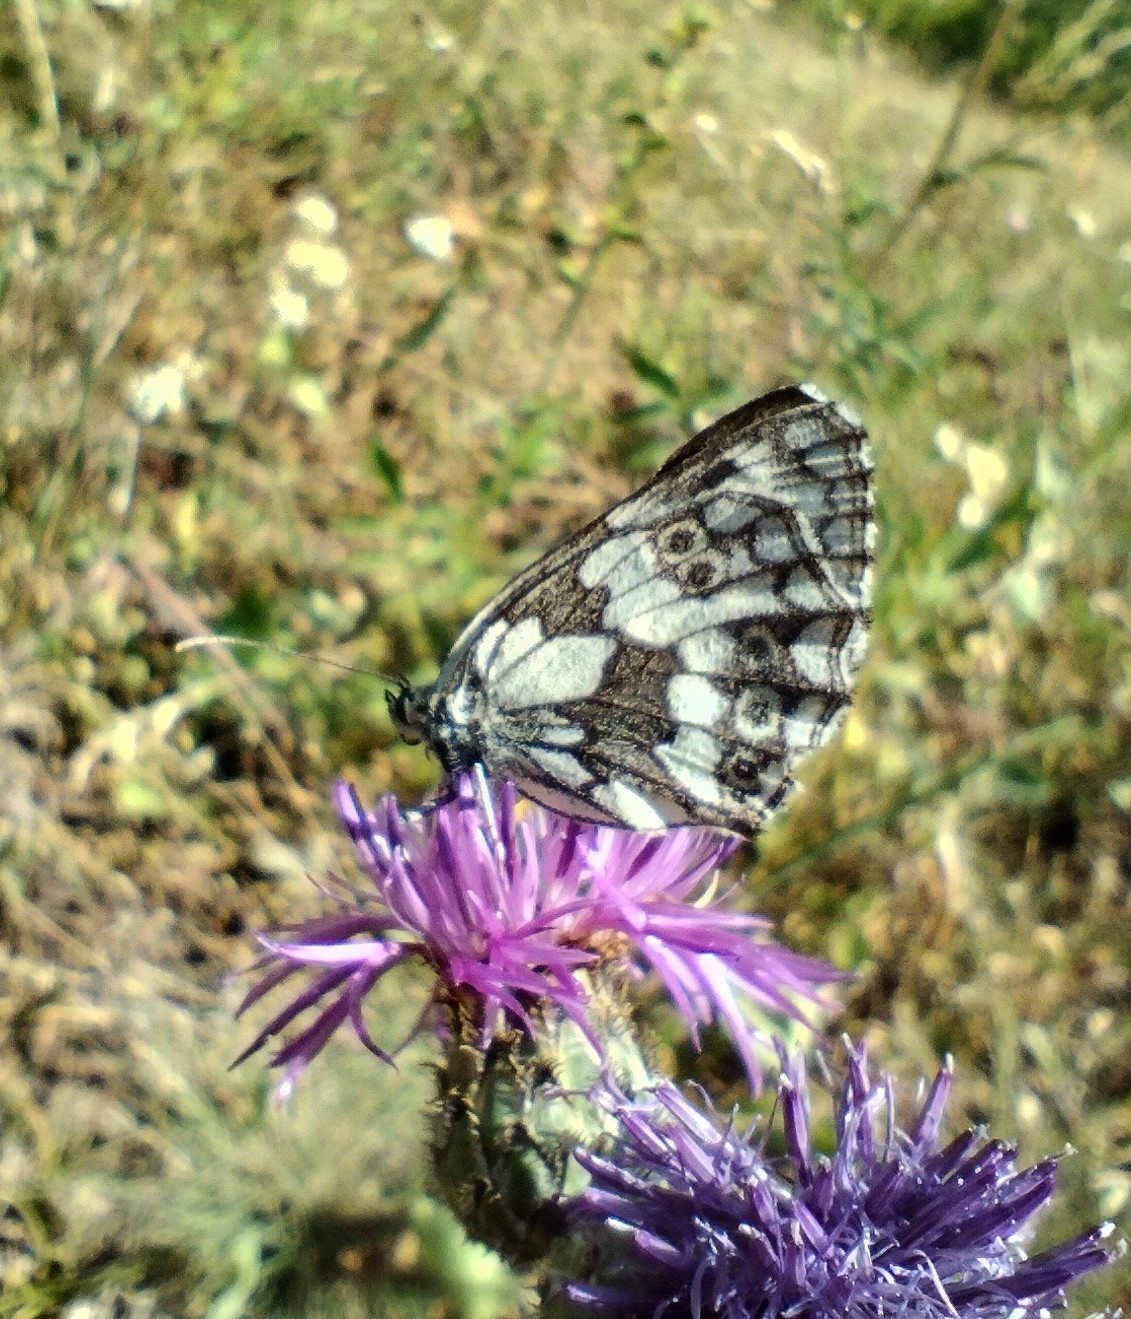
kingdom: Animalia
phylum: Arthropoda
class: Insecta
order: Lepidoptera
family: Nymphalidae
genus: Melanargia
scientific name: Melanargia galathea
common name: Marbled white
